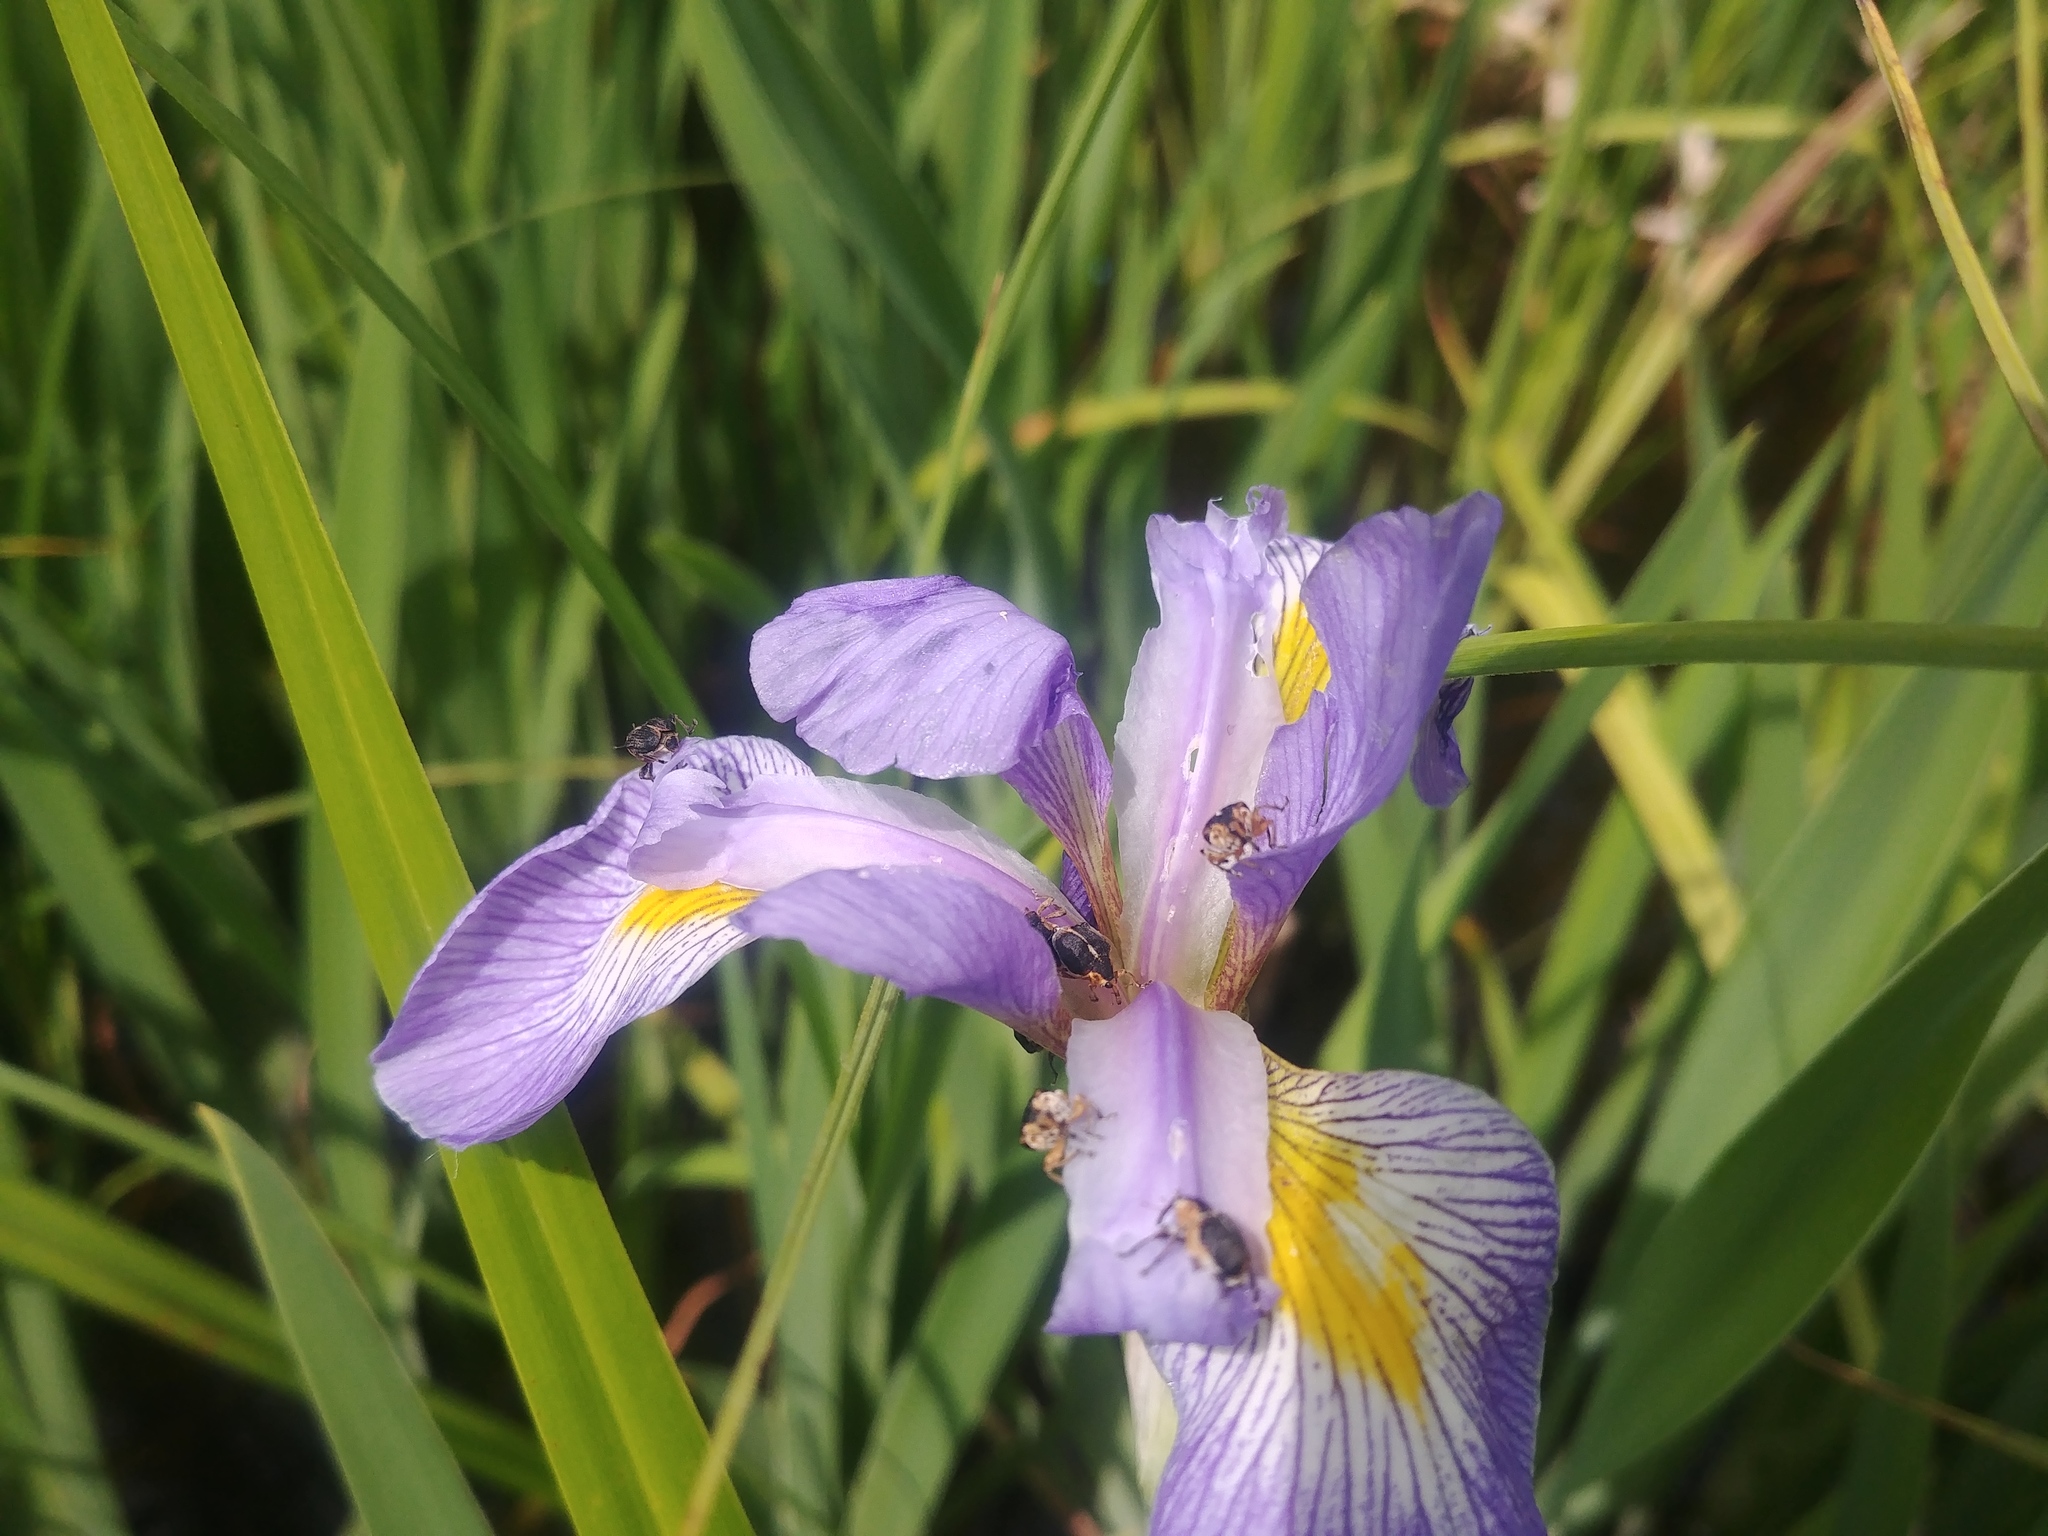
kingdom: Animalia
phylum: Arthropoda
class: Insecta
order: Coleoptera
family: Curculionidae
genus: Mononychus
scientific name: Mononychus vulpeculus
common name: Iris weevil
